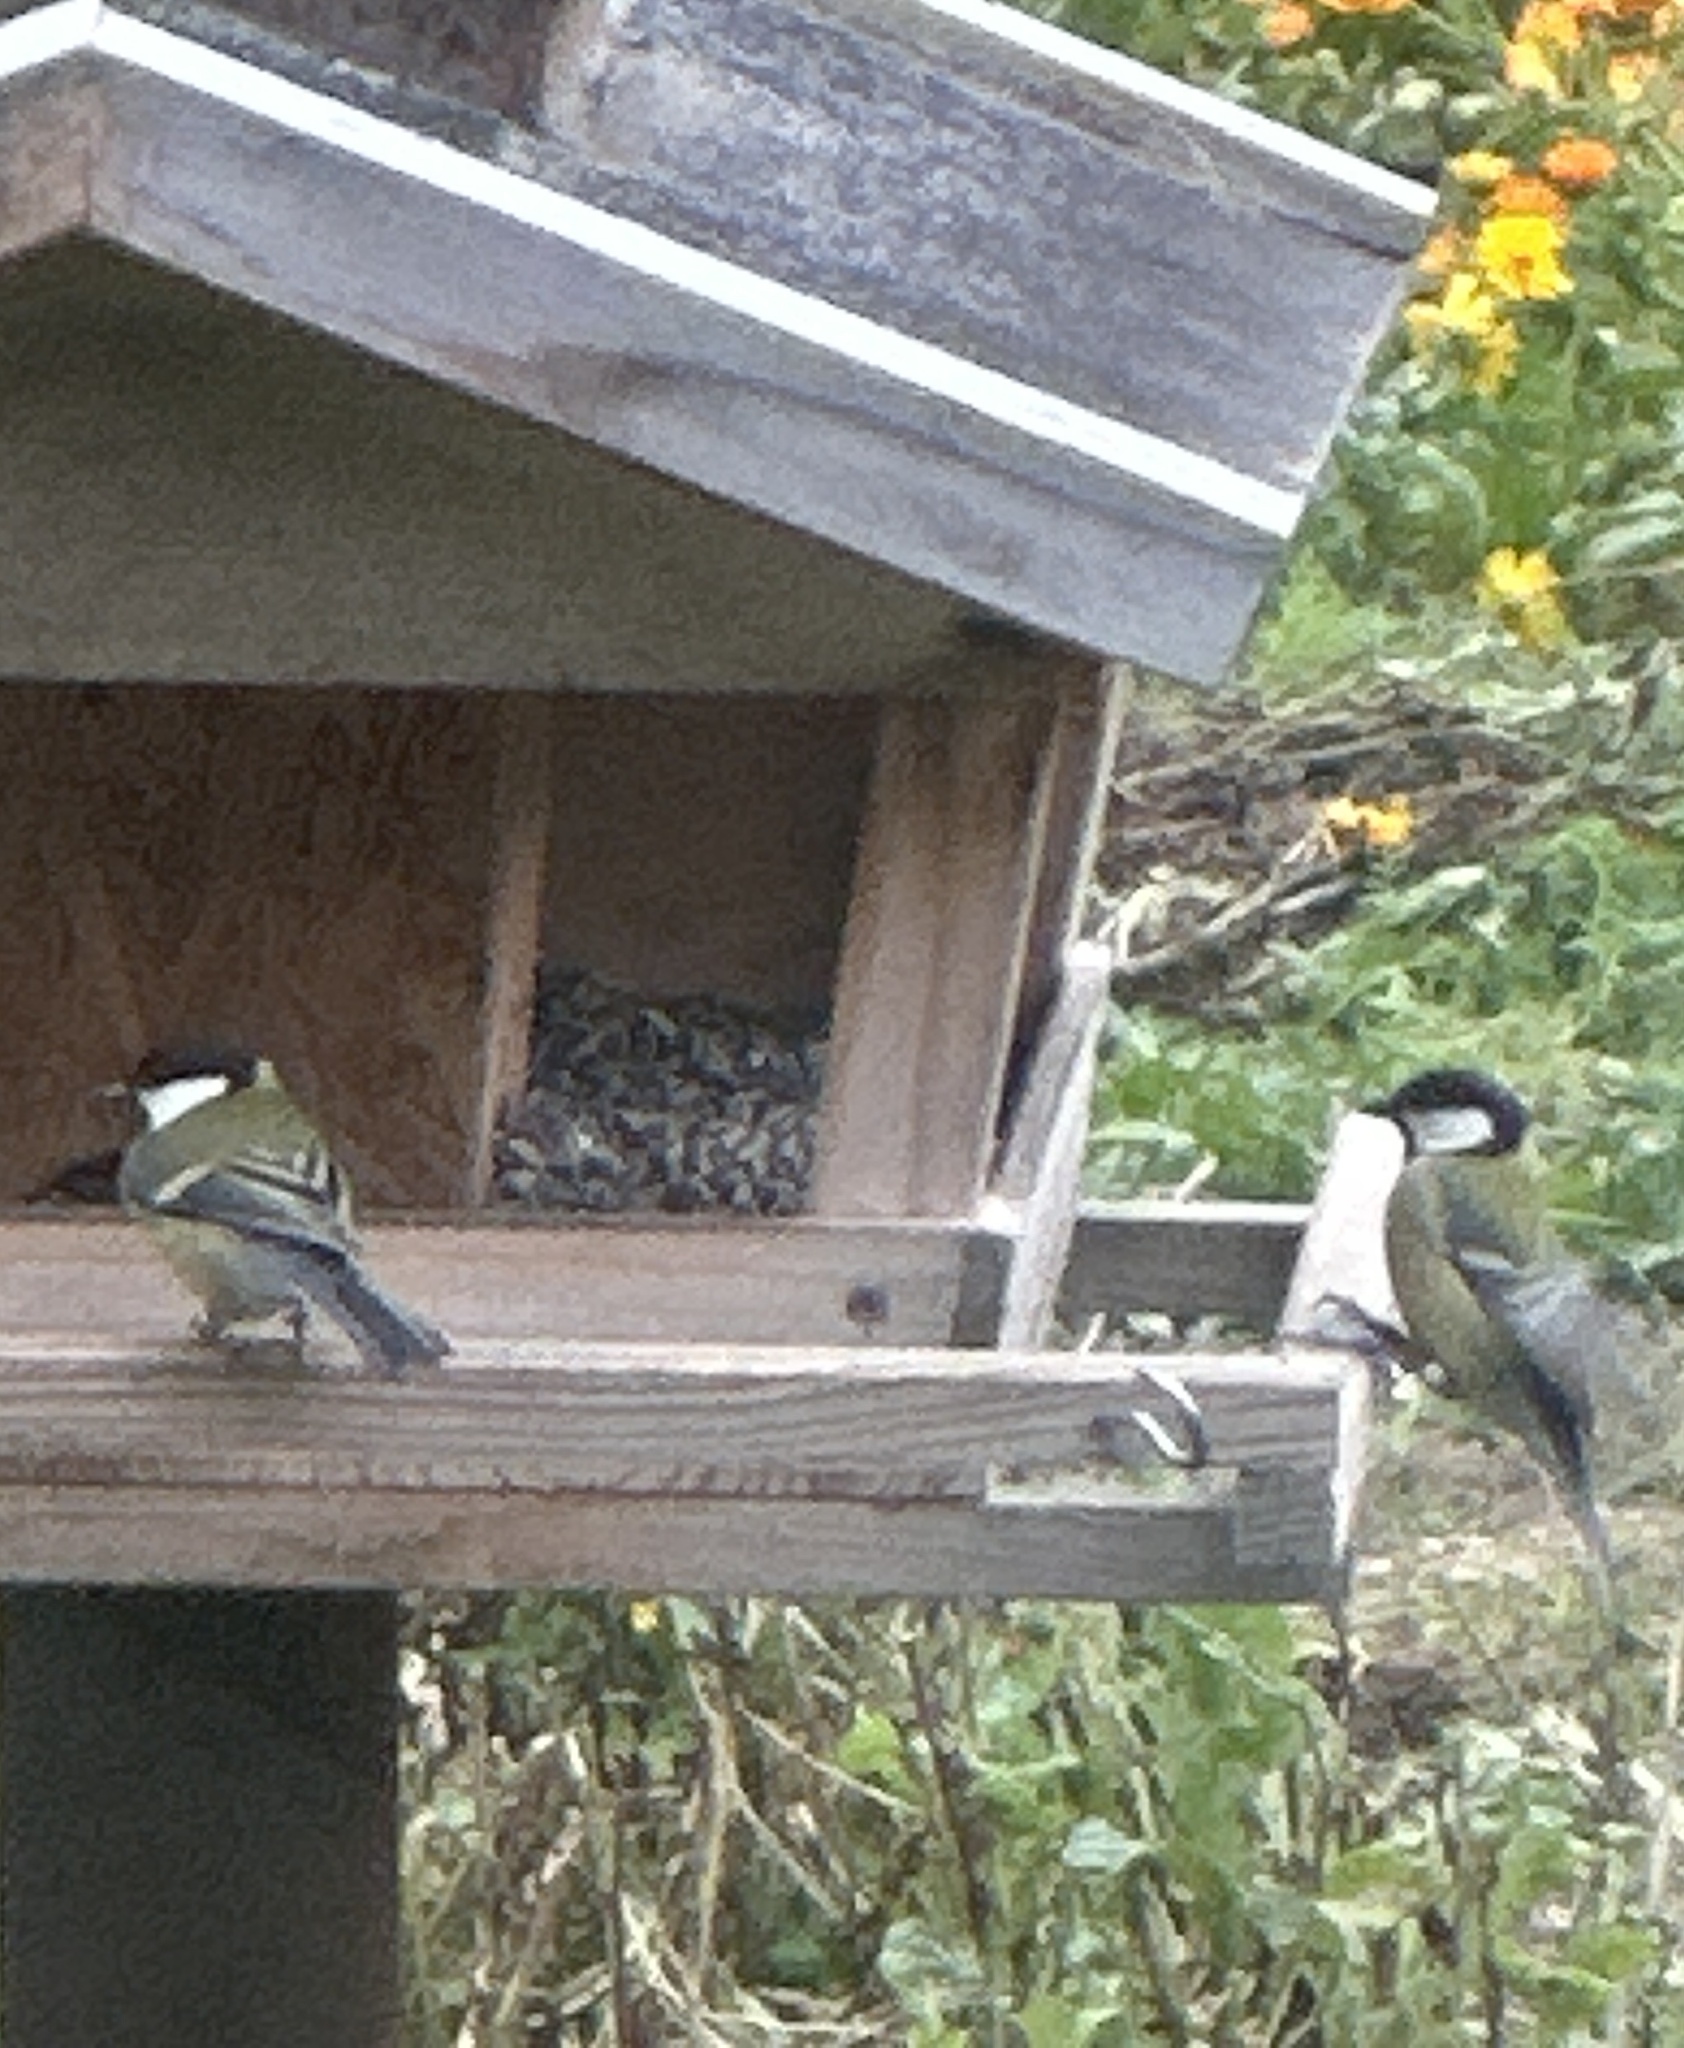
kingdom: Animalia
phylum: Chordata
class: Aves
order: Passeriformes
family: Paridae
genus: Parus
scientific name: Parus major
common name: Great tit
